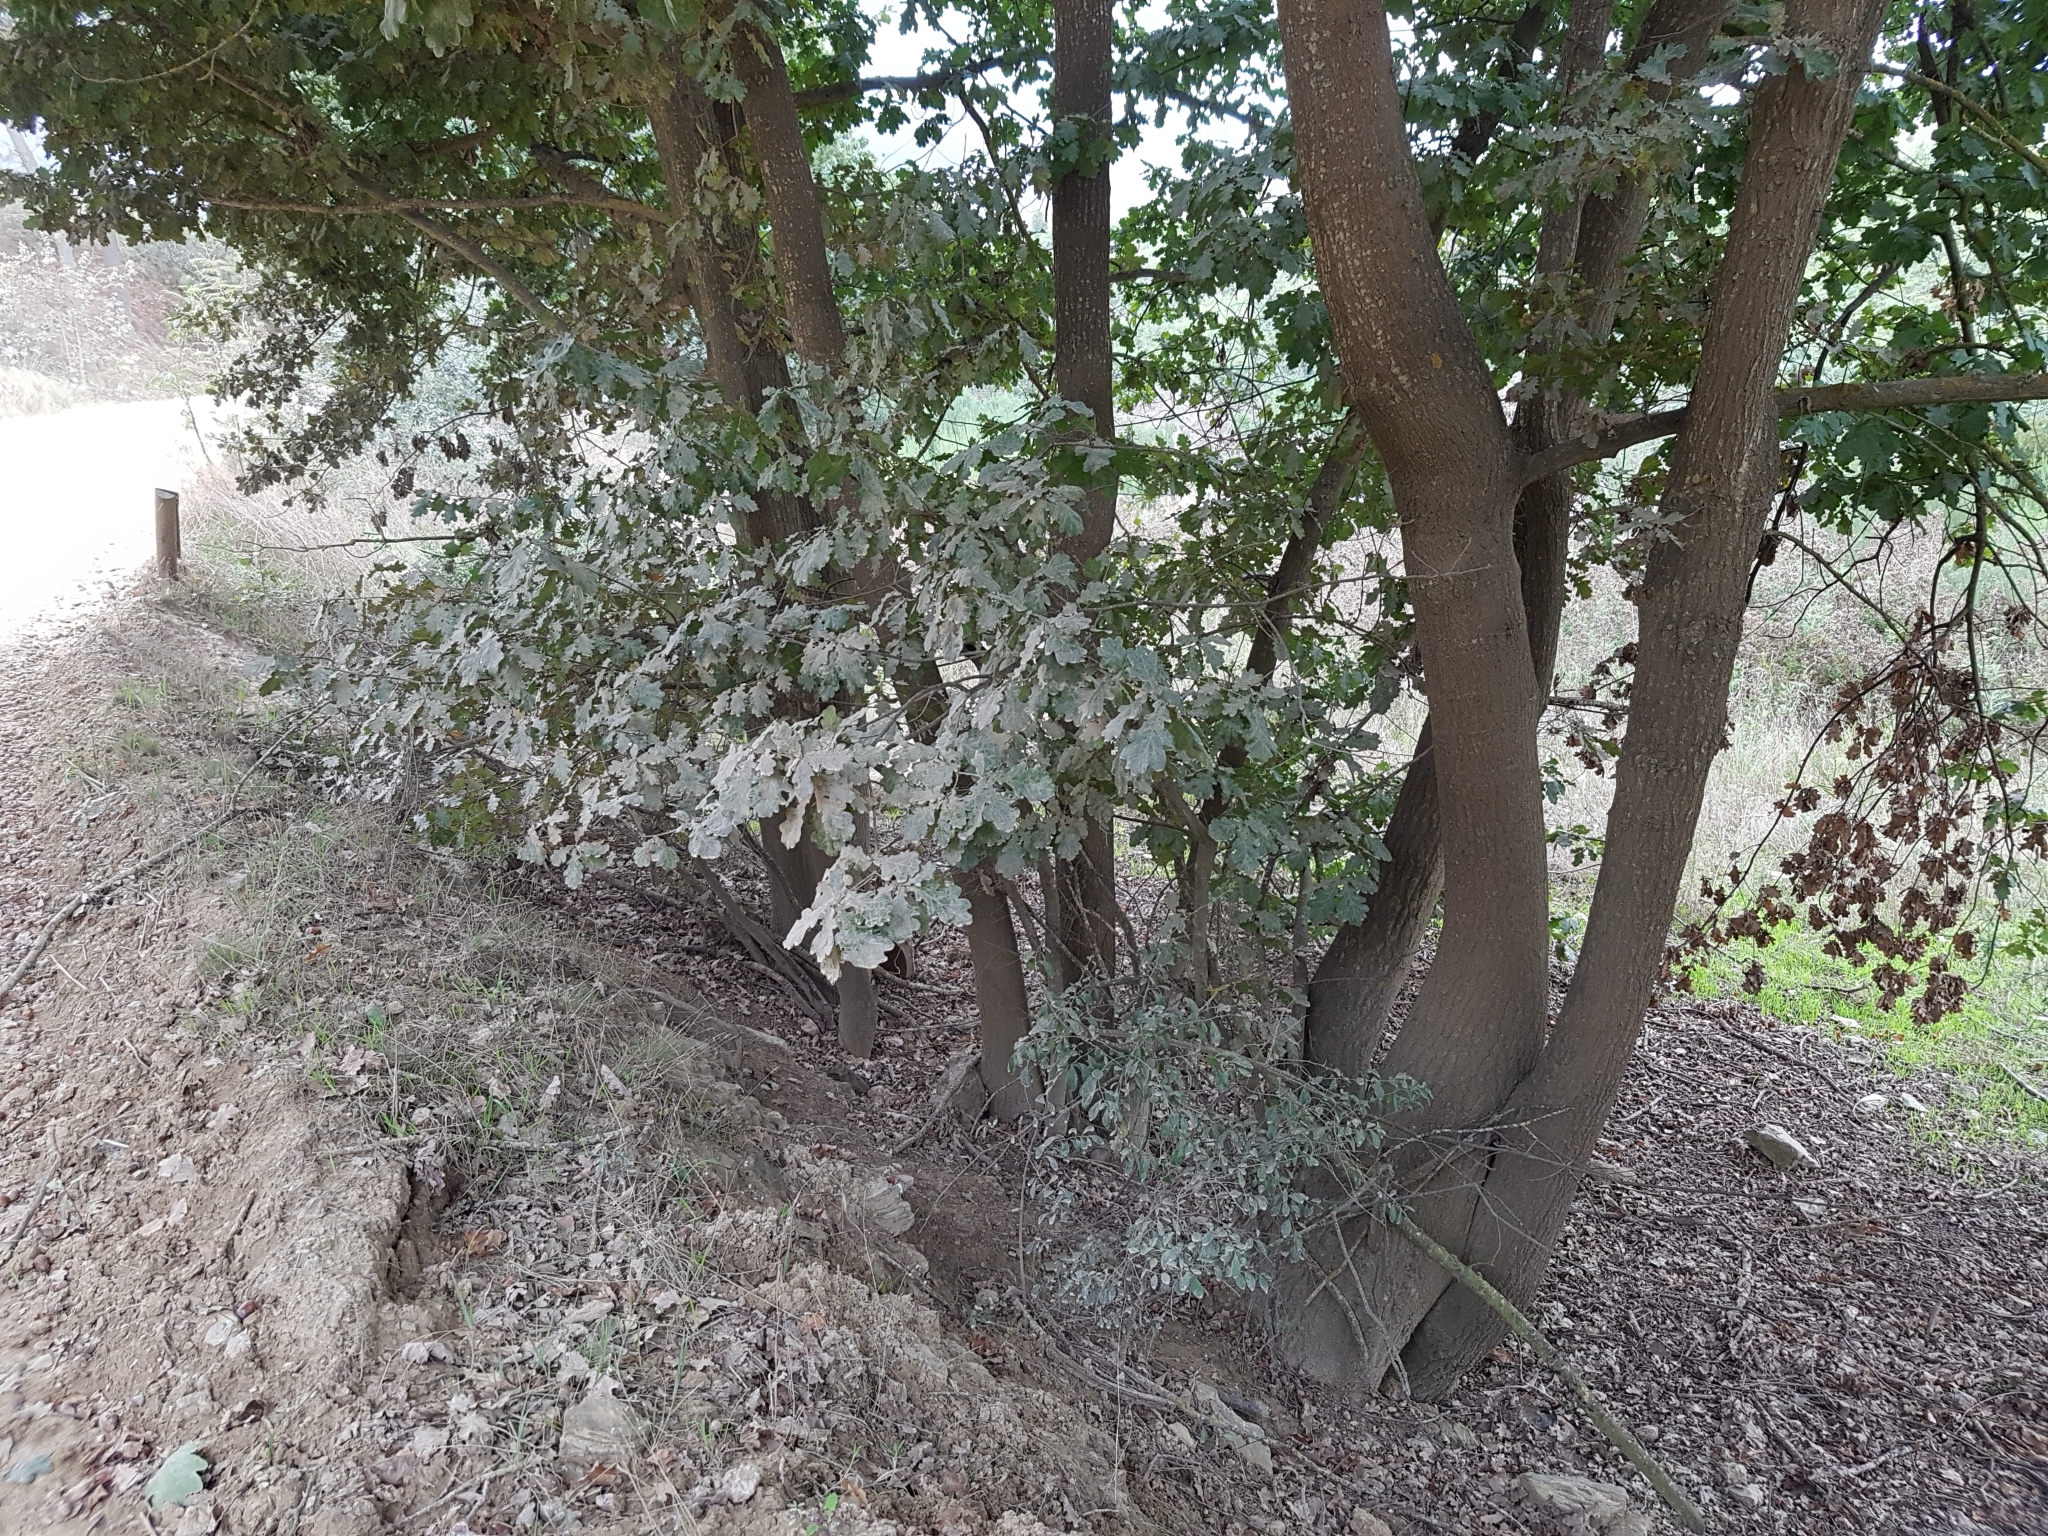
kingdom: Plantae
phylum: Tracheophyta
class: Magnoliopsida
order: Fagales
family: Fagaceae
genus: Quercus
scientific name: Quercus robur
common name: Pedunculate oak
